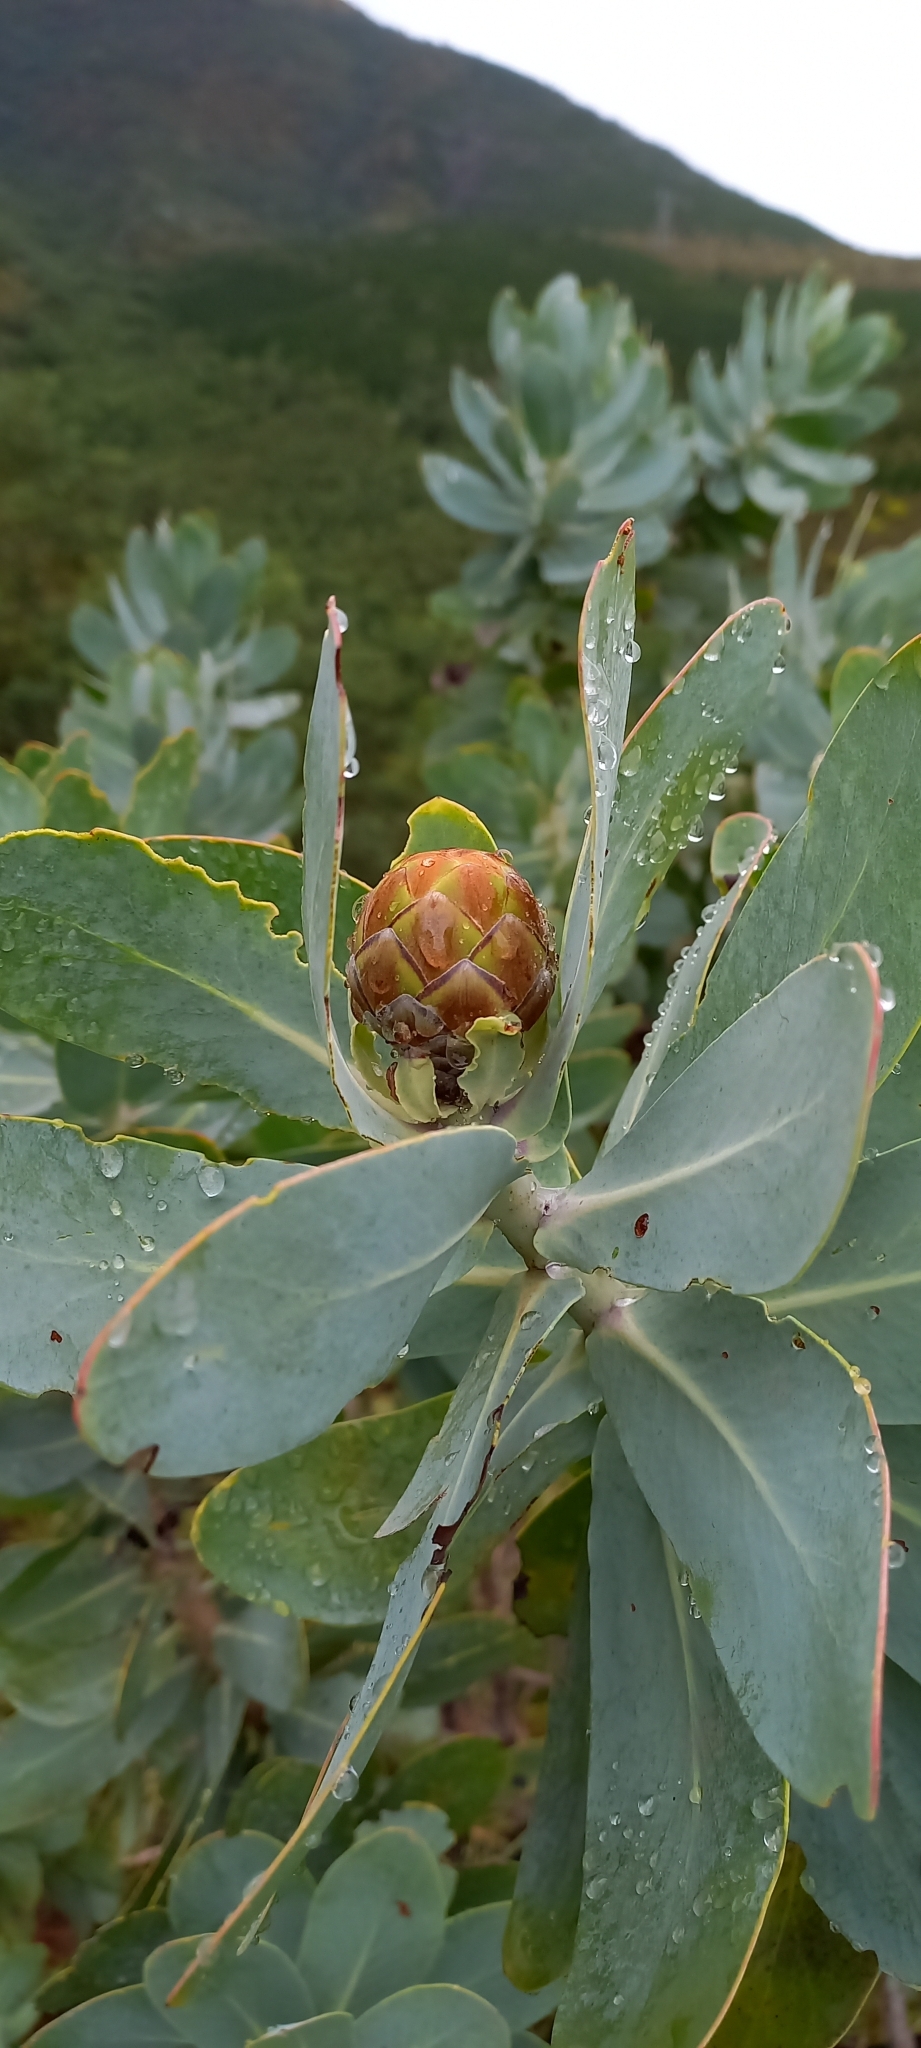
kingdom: Plantae
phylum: Tracheophyta
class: Magnoliopsida
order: Proteales
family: Proteaceae
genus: Protea
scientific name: Protea nitida
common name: Tree protea
